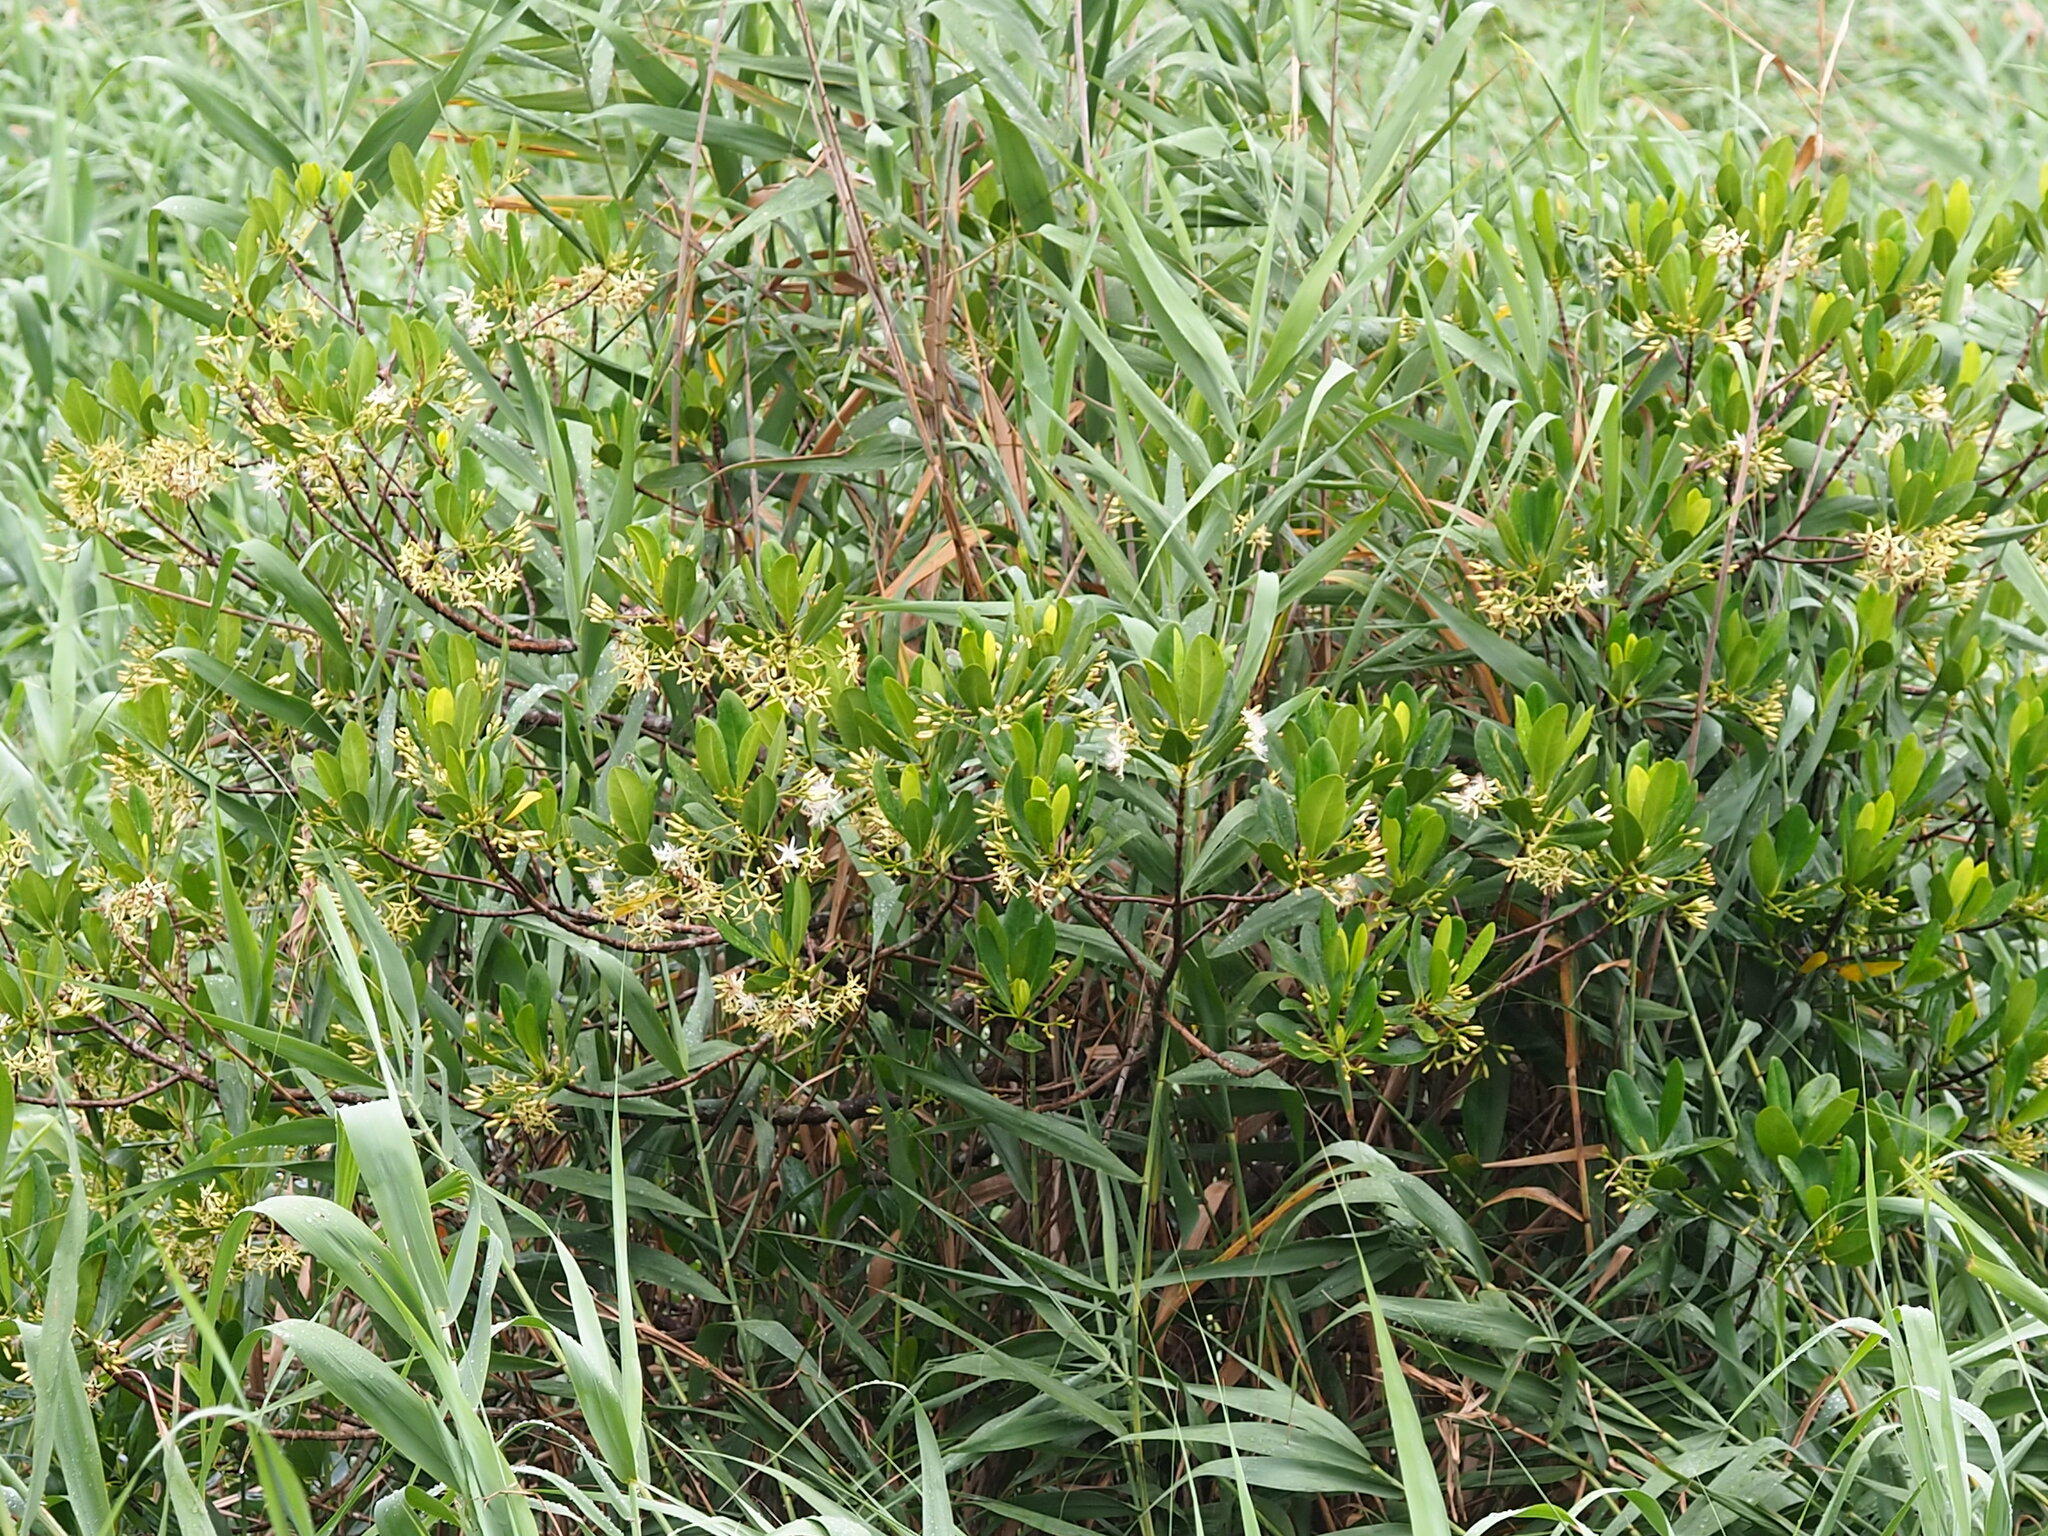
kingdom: Plantae
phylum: Tracheophyta
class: Magnoliopsida
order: Malpighiales
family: Rhizophoraceae
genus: Kandelia
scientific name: Kandelia obovata
